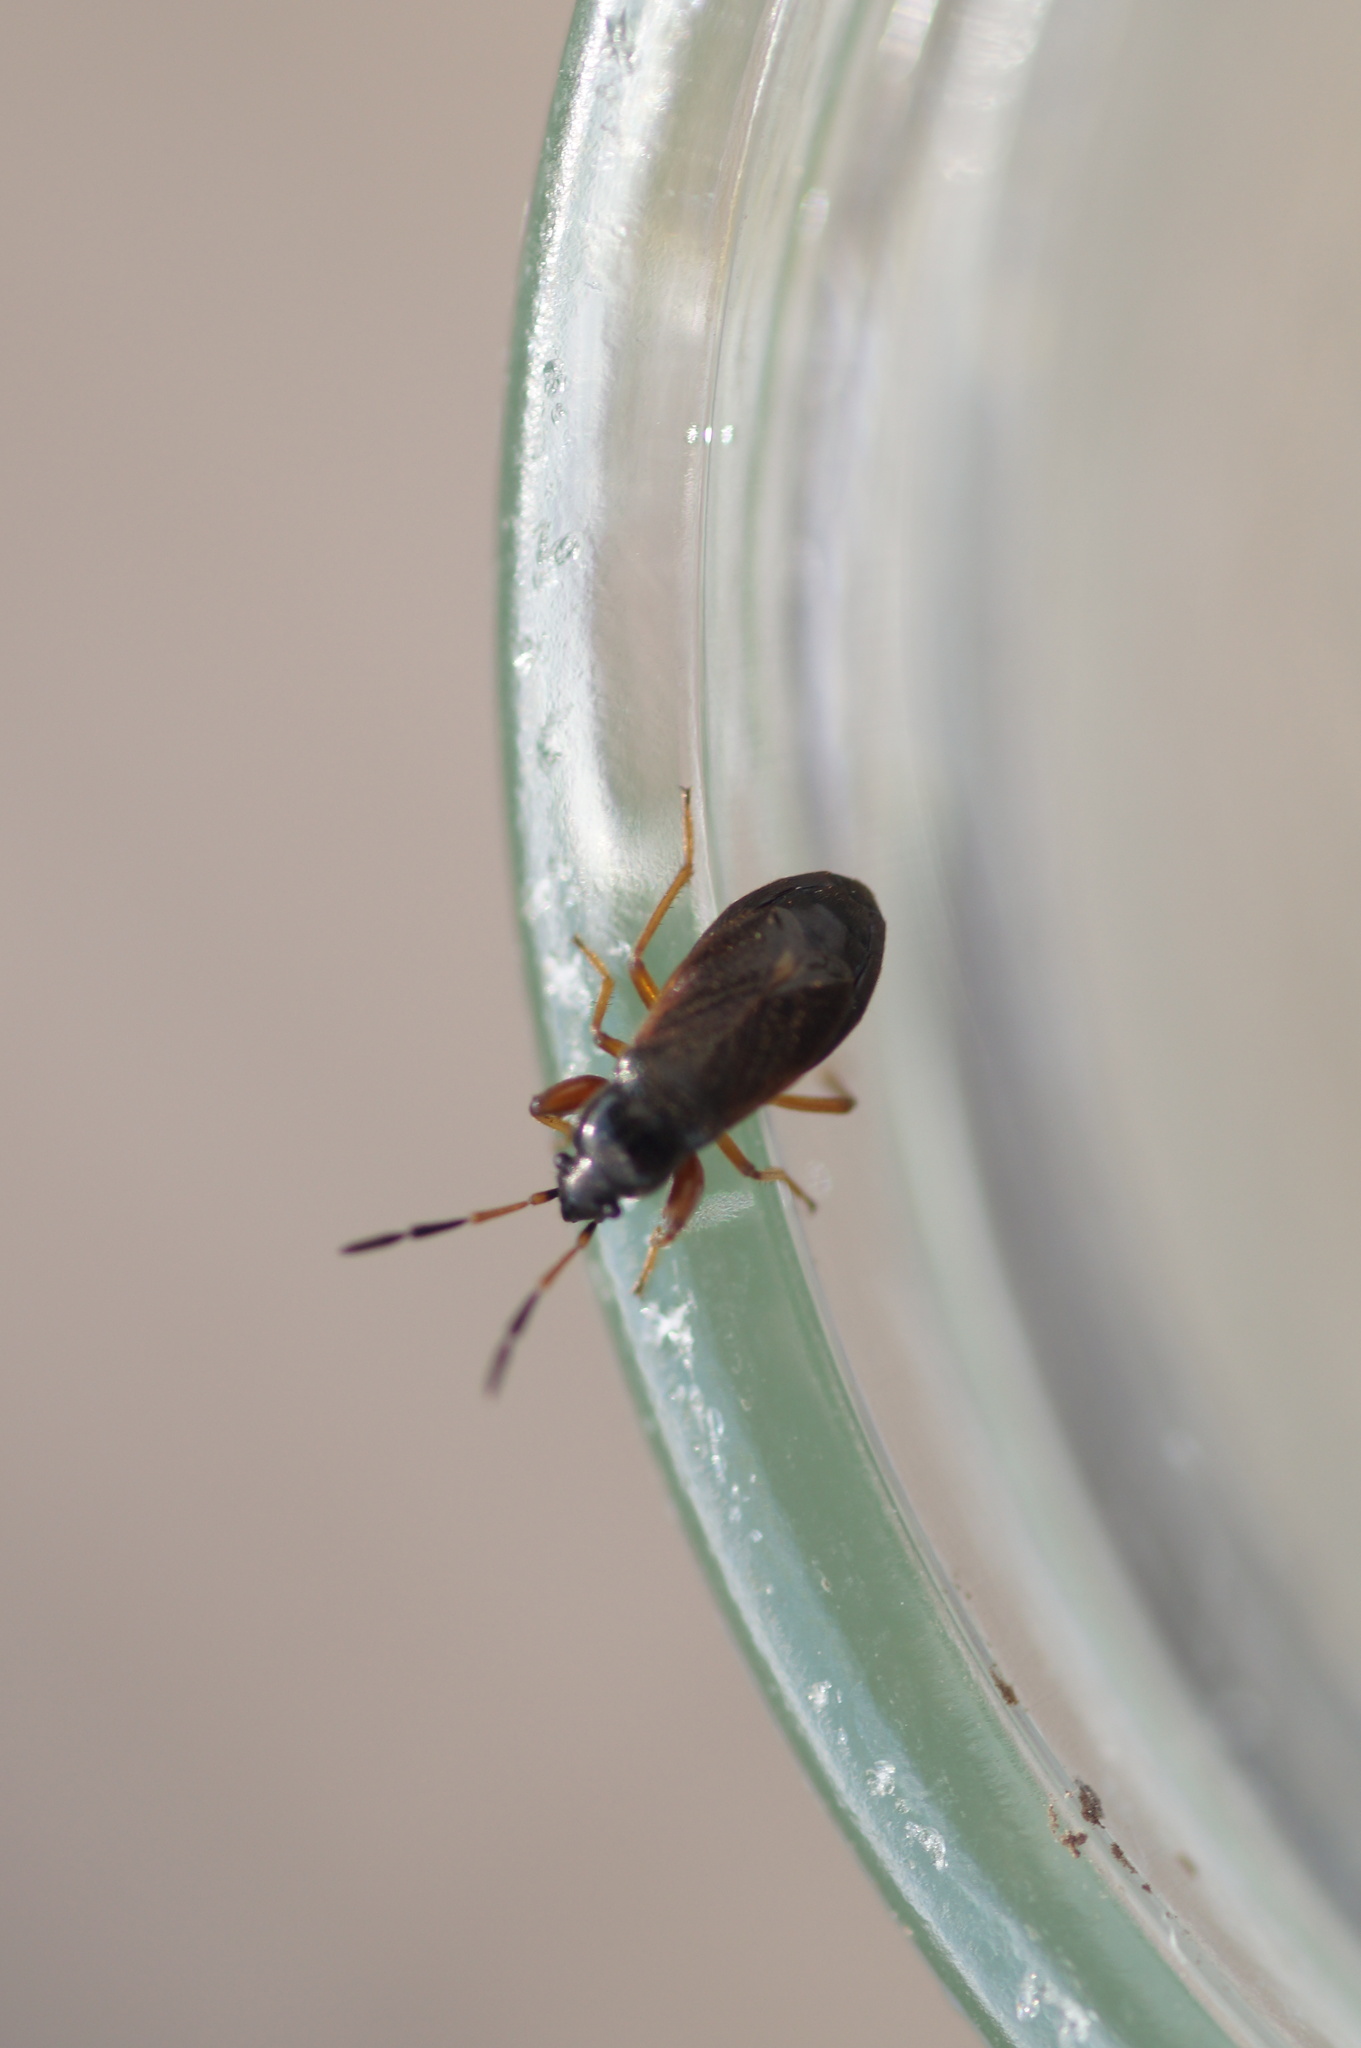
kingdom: Animalia
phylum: Arthropoda
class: Insecta
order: Hemiptera
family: Rhyparochromidae
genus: Megalonotus
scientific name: Megalonotus antennatus
